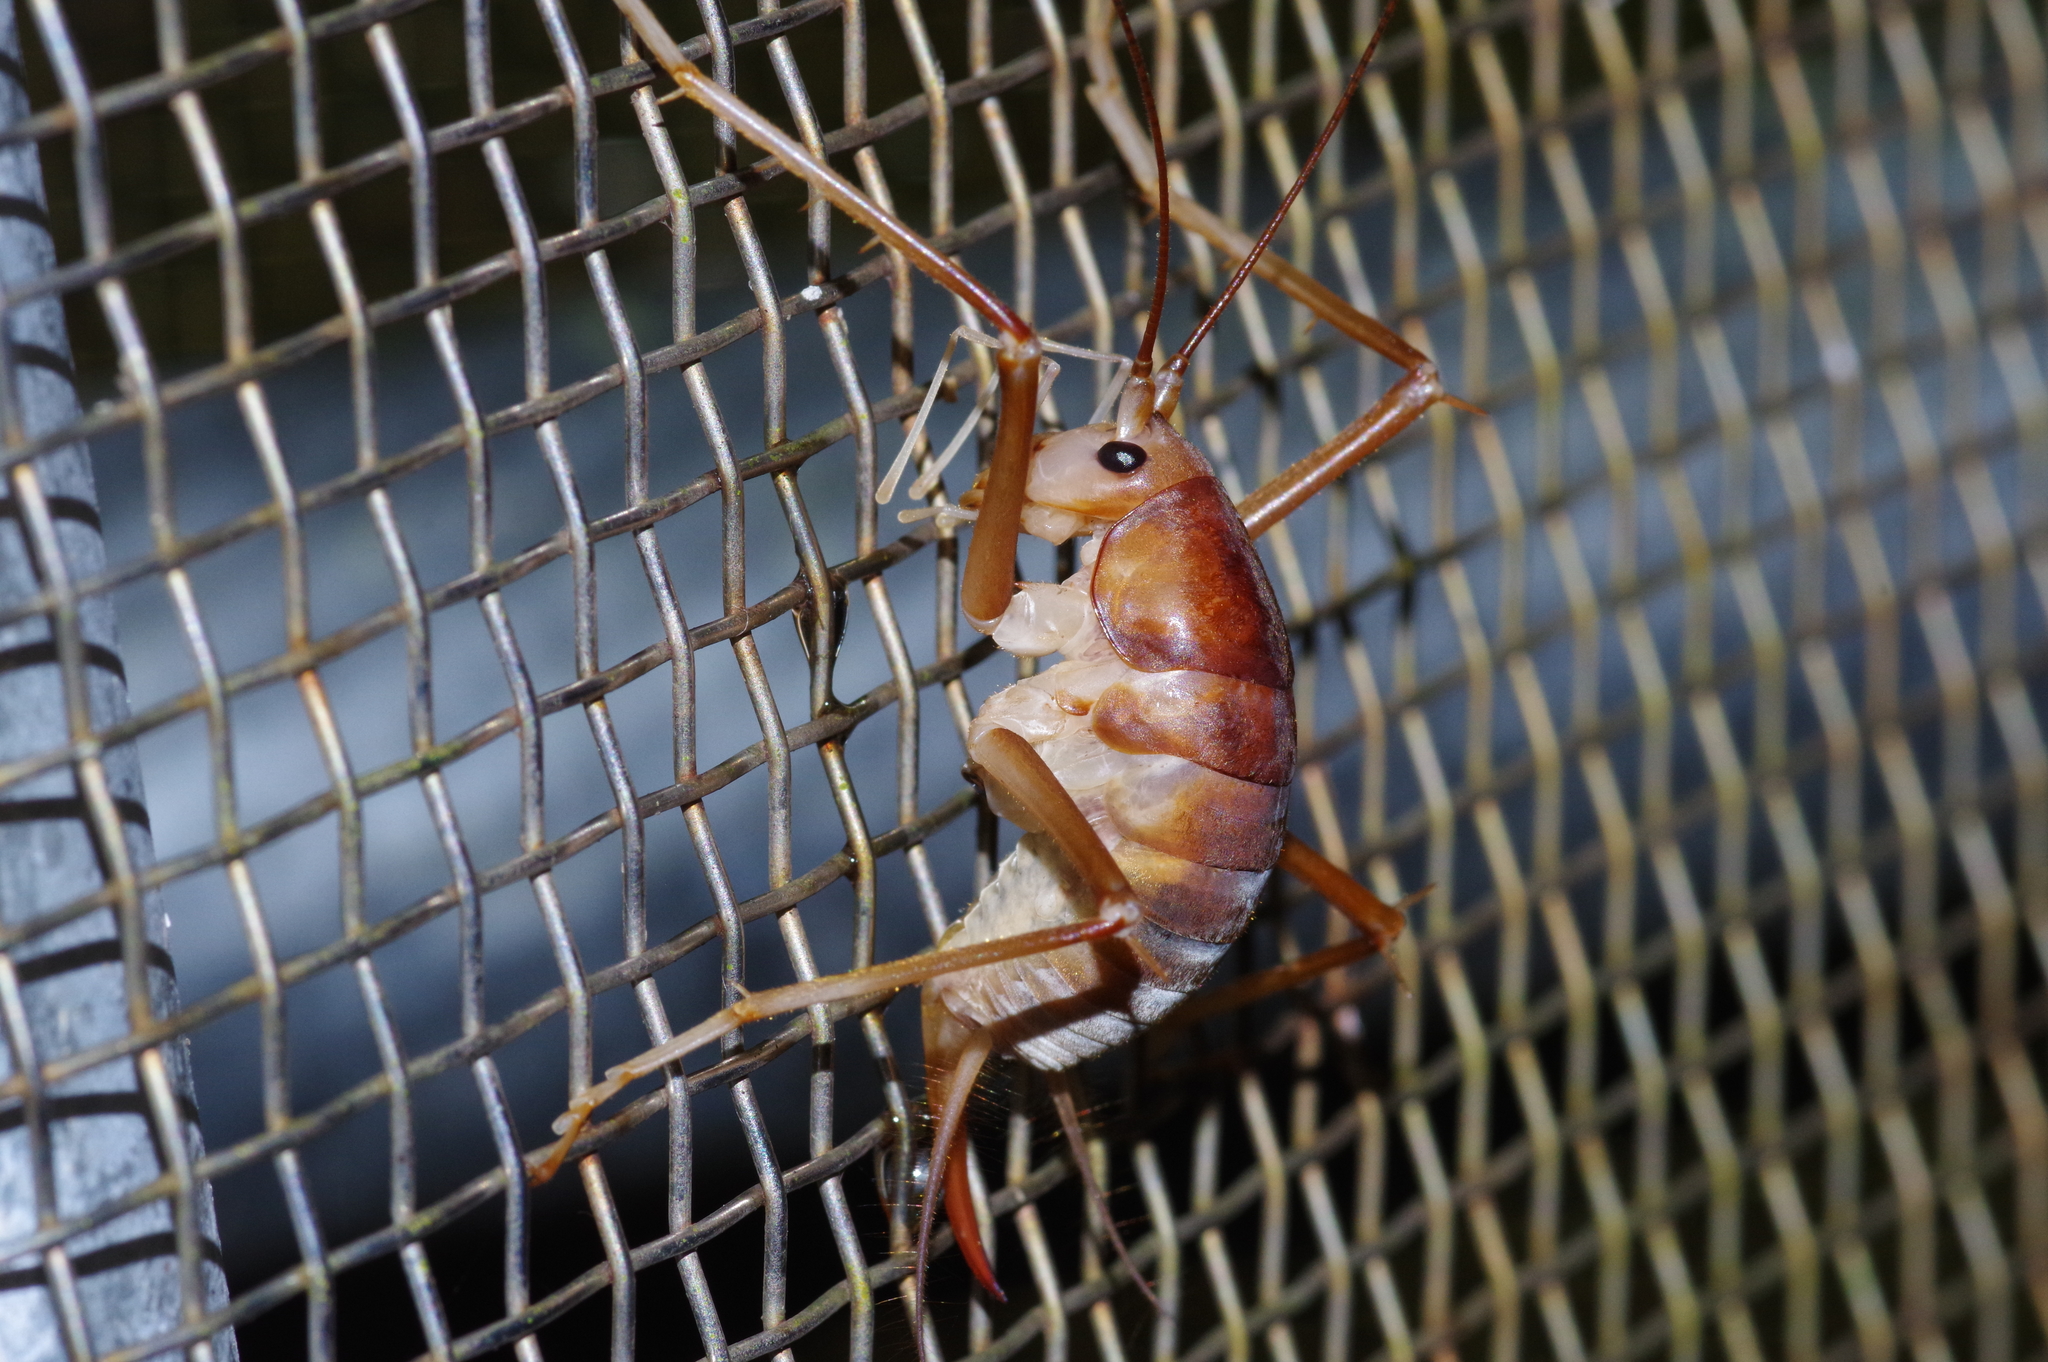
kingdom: Animalia
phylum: Arthropoda
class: Insecta
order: Orthoptera
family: Rhaphidophoridae
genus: Neotachycines
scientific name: Neotachycines obliquofasciatus
